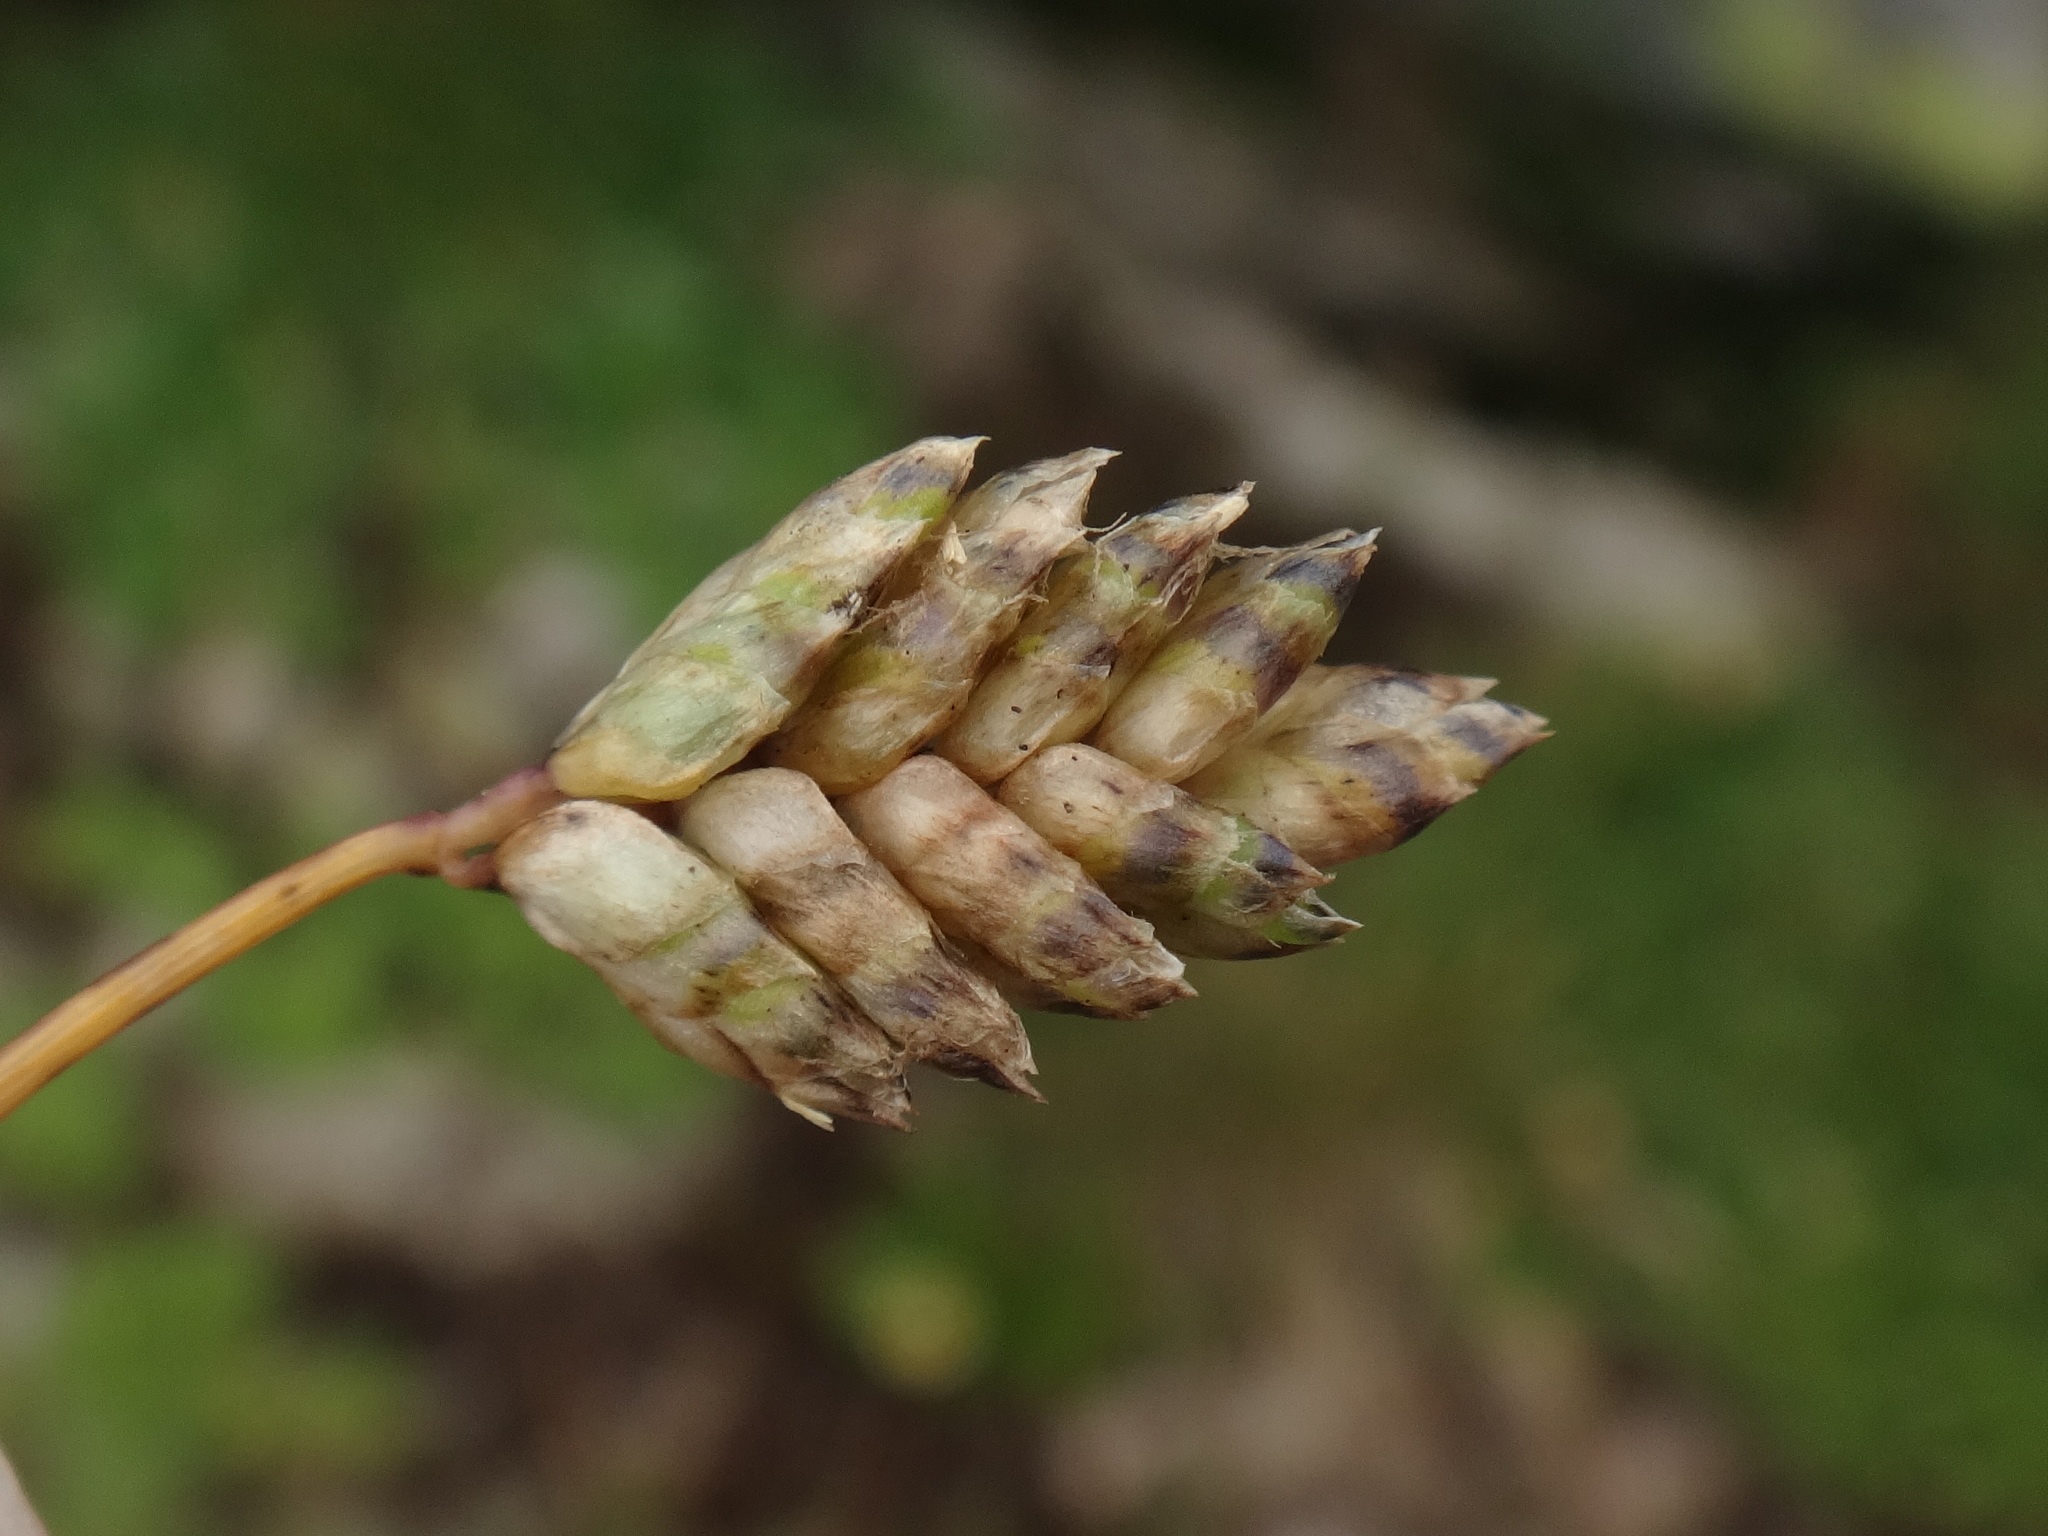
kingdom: Plantae
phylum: Tracheophyta
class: Liliopsida
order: Poales
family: Poaceae
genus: Oreochloa
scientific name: Oreochloa disticha
